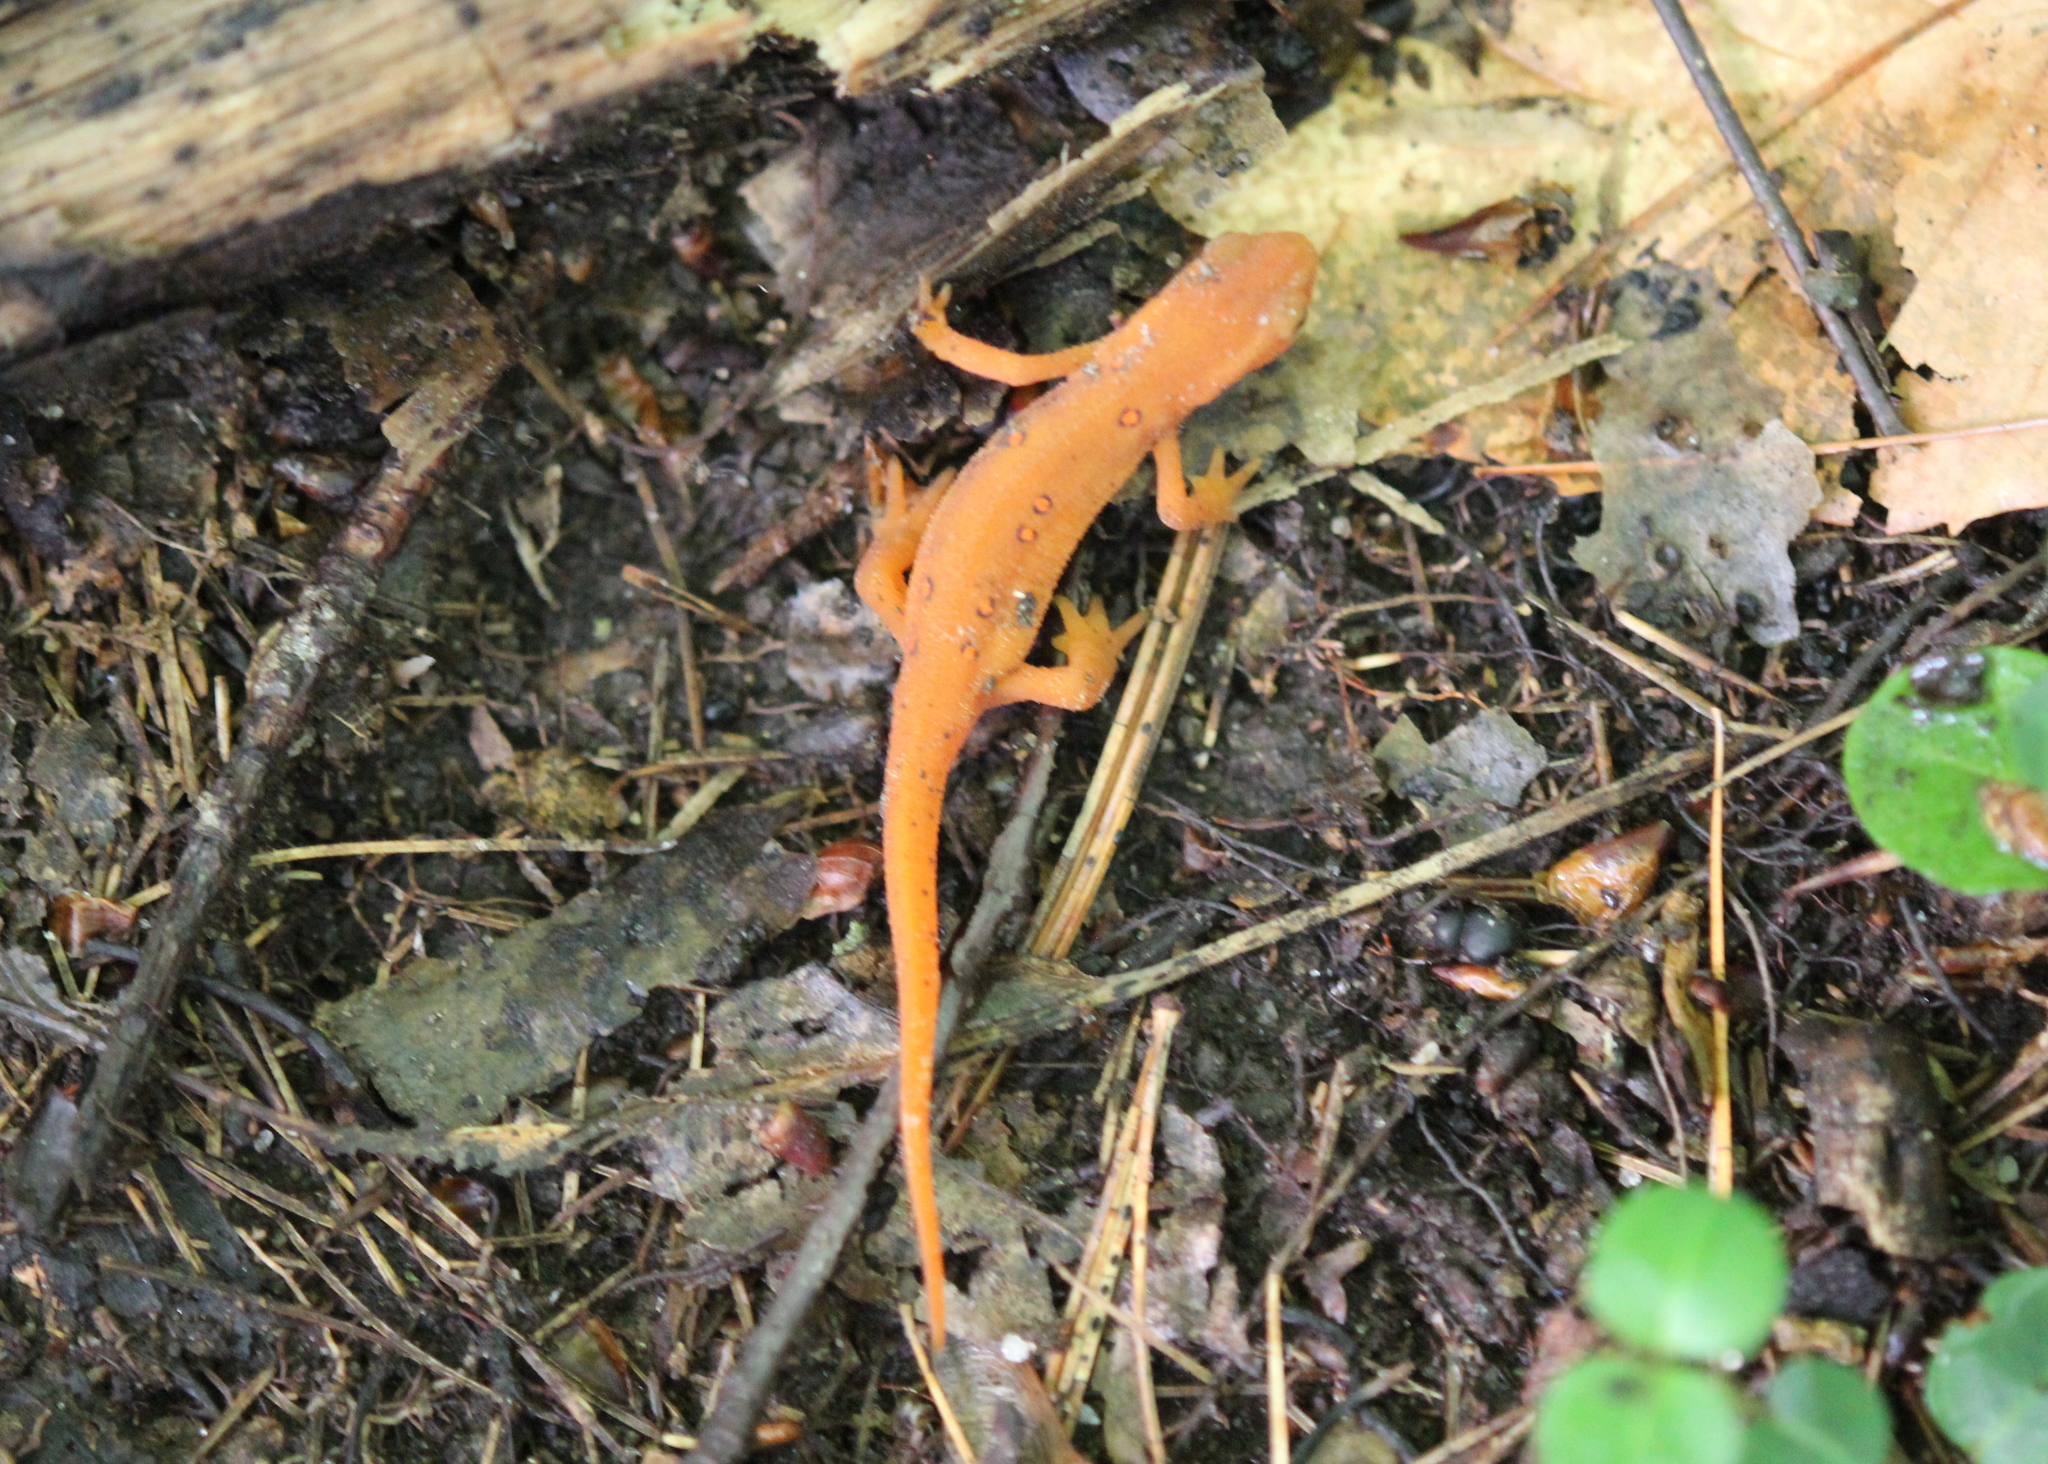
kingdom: Animalia
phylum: Chordata
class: Amphibia
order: Caudata
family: Salamandridae
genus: Notophthalmus
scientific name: Notophthalmus viridescens
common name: Eastern newt
